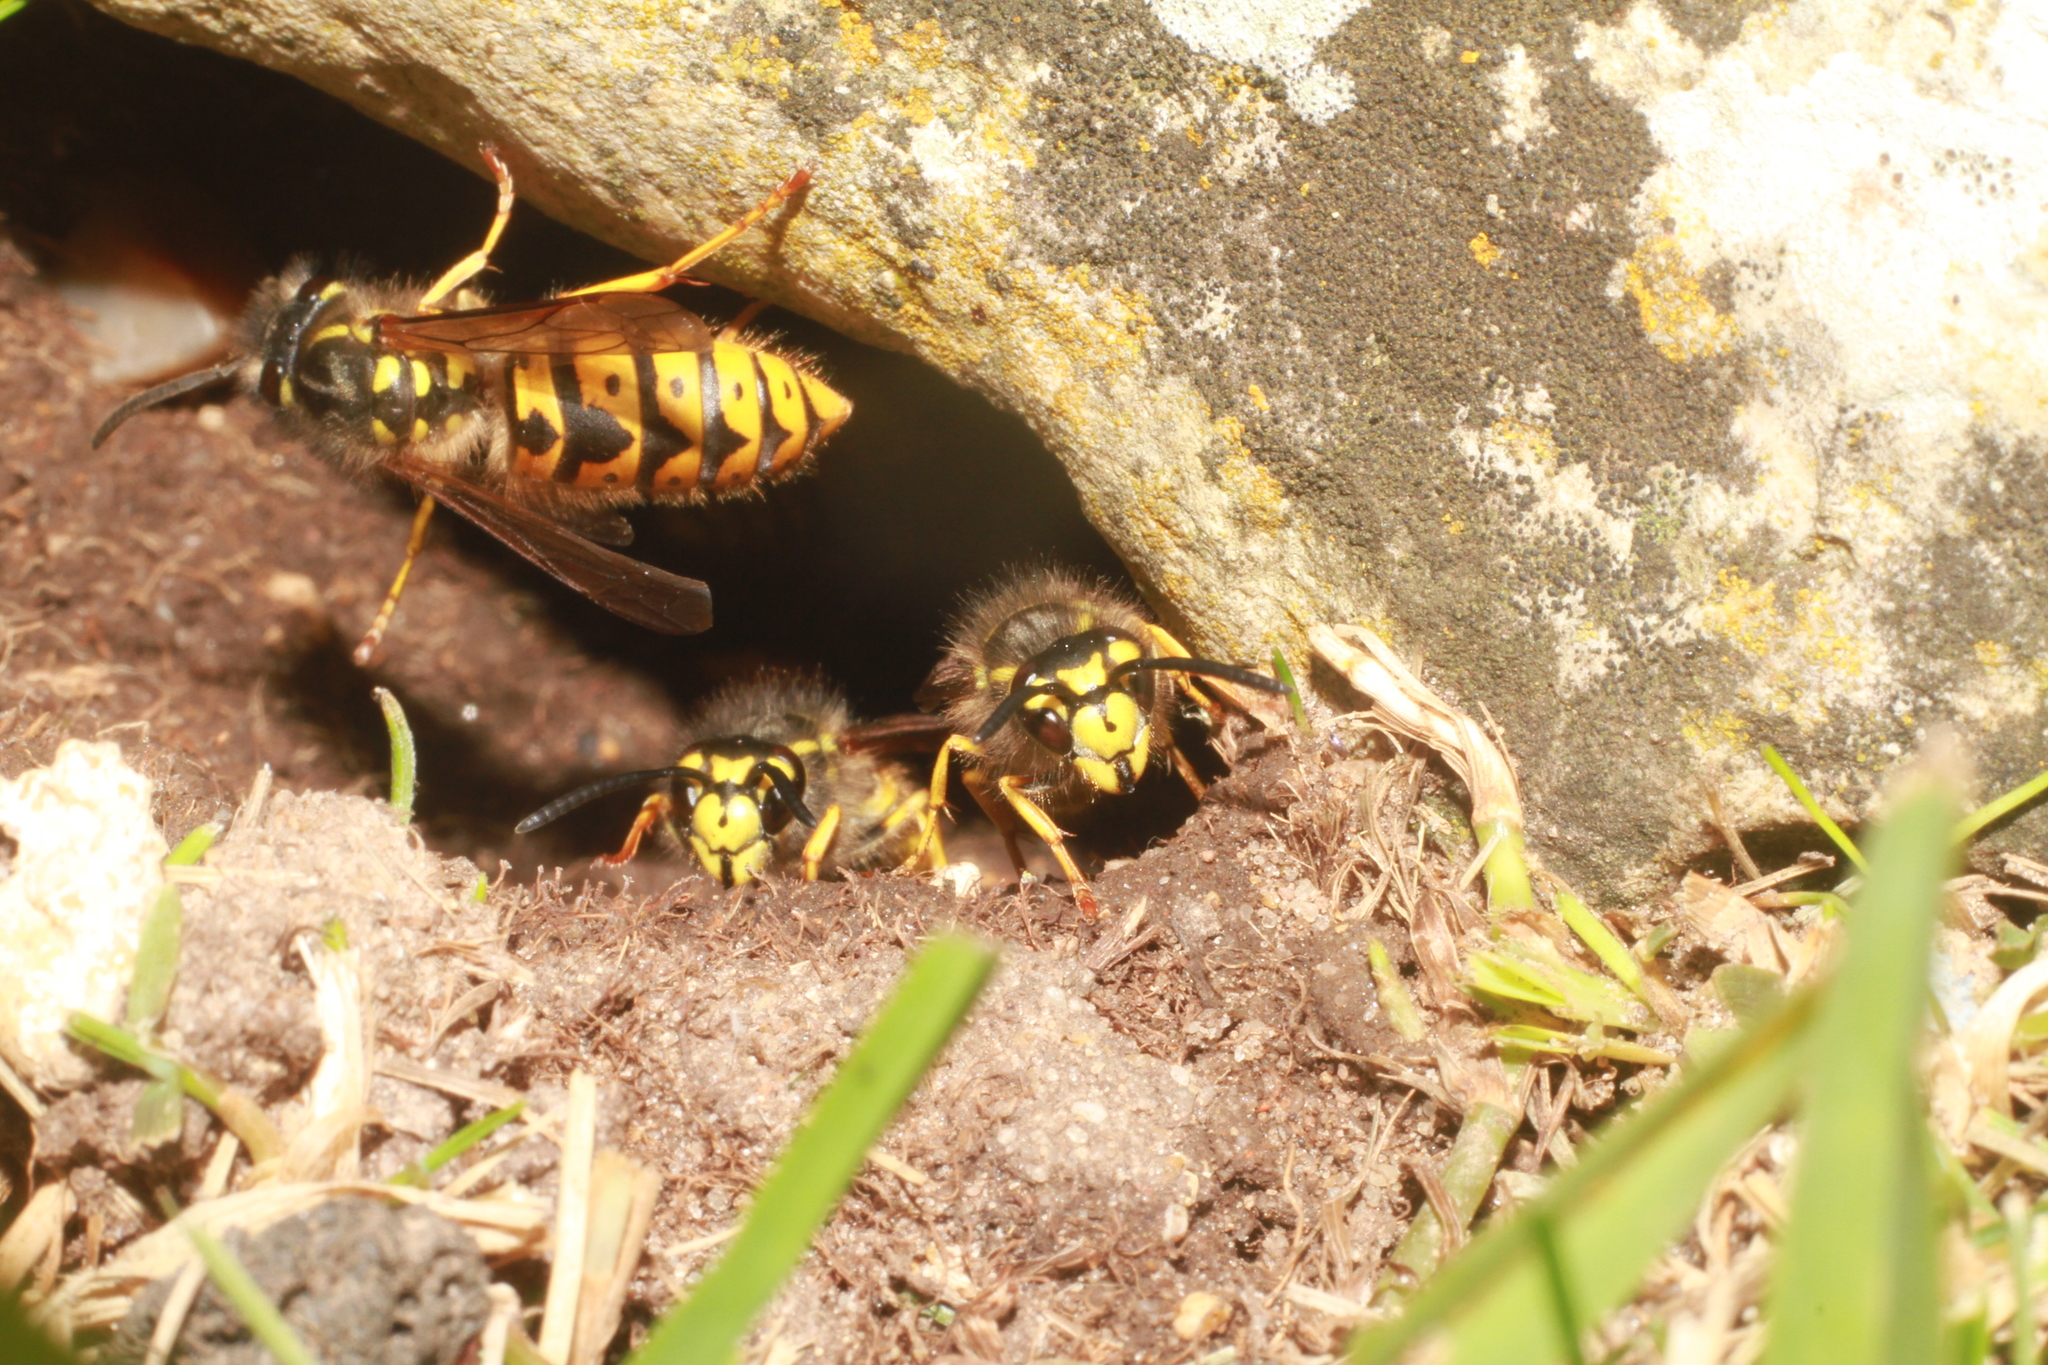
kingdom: Animalia
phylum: Arthropoda
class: Insecta
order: Hymenoptera
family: Vespidae
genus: Vespula
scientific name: Vespula germanica
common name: German wasp
